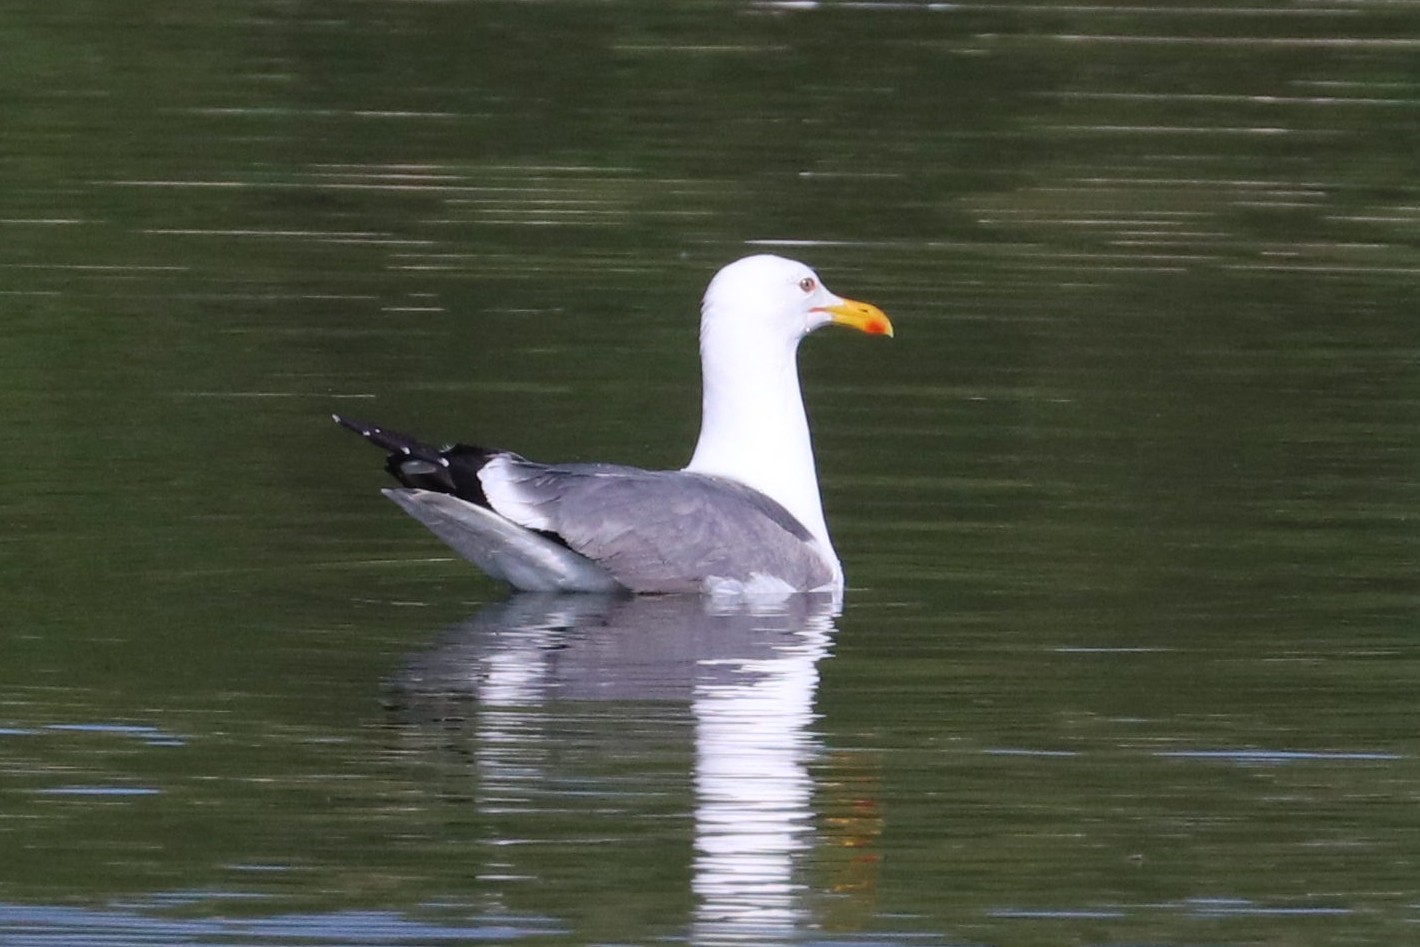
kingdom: Animalia
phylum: Chordata
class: Aves
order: Charadriiformes
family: Laridae
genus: Larus
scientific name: Larus fuscus
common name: Lesser black-backed gull
